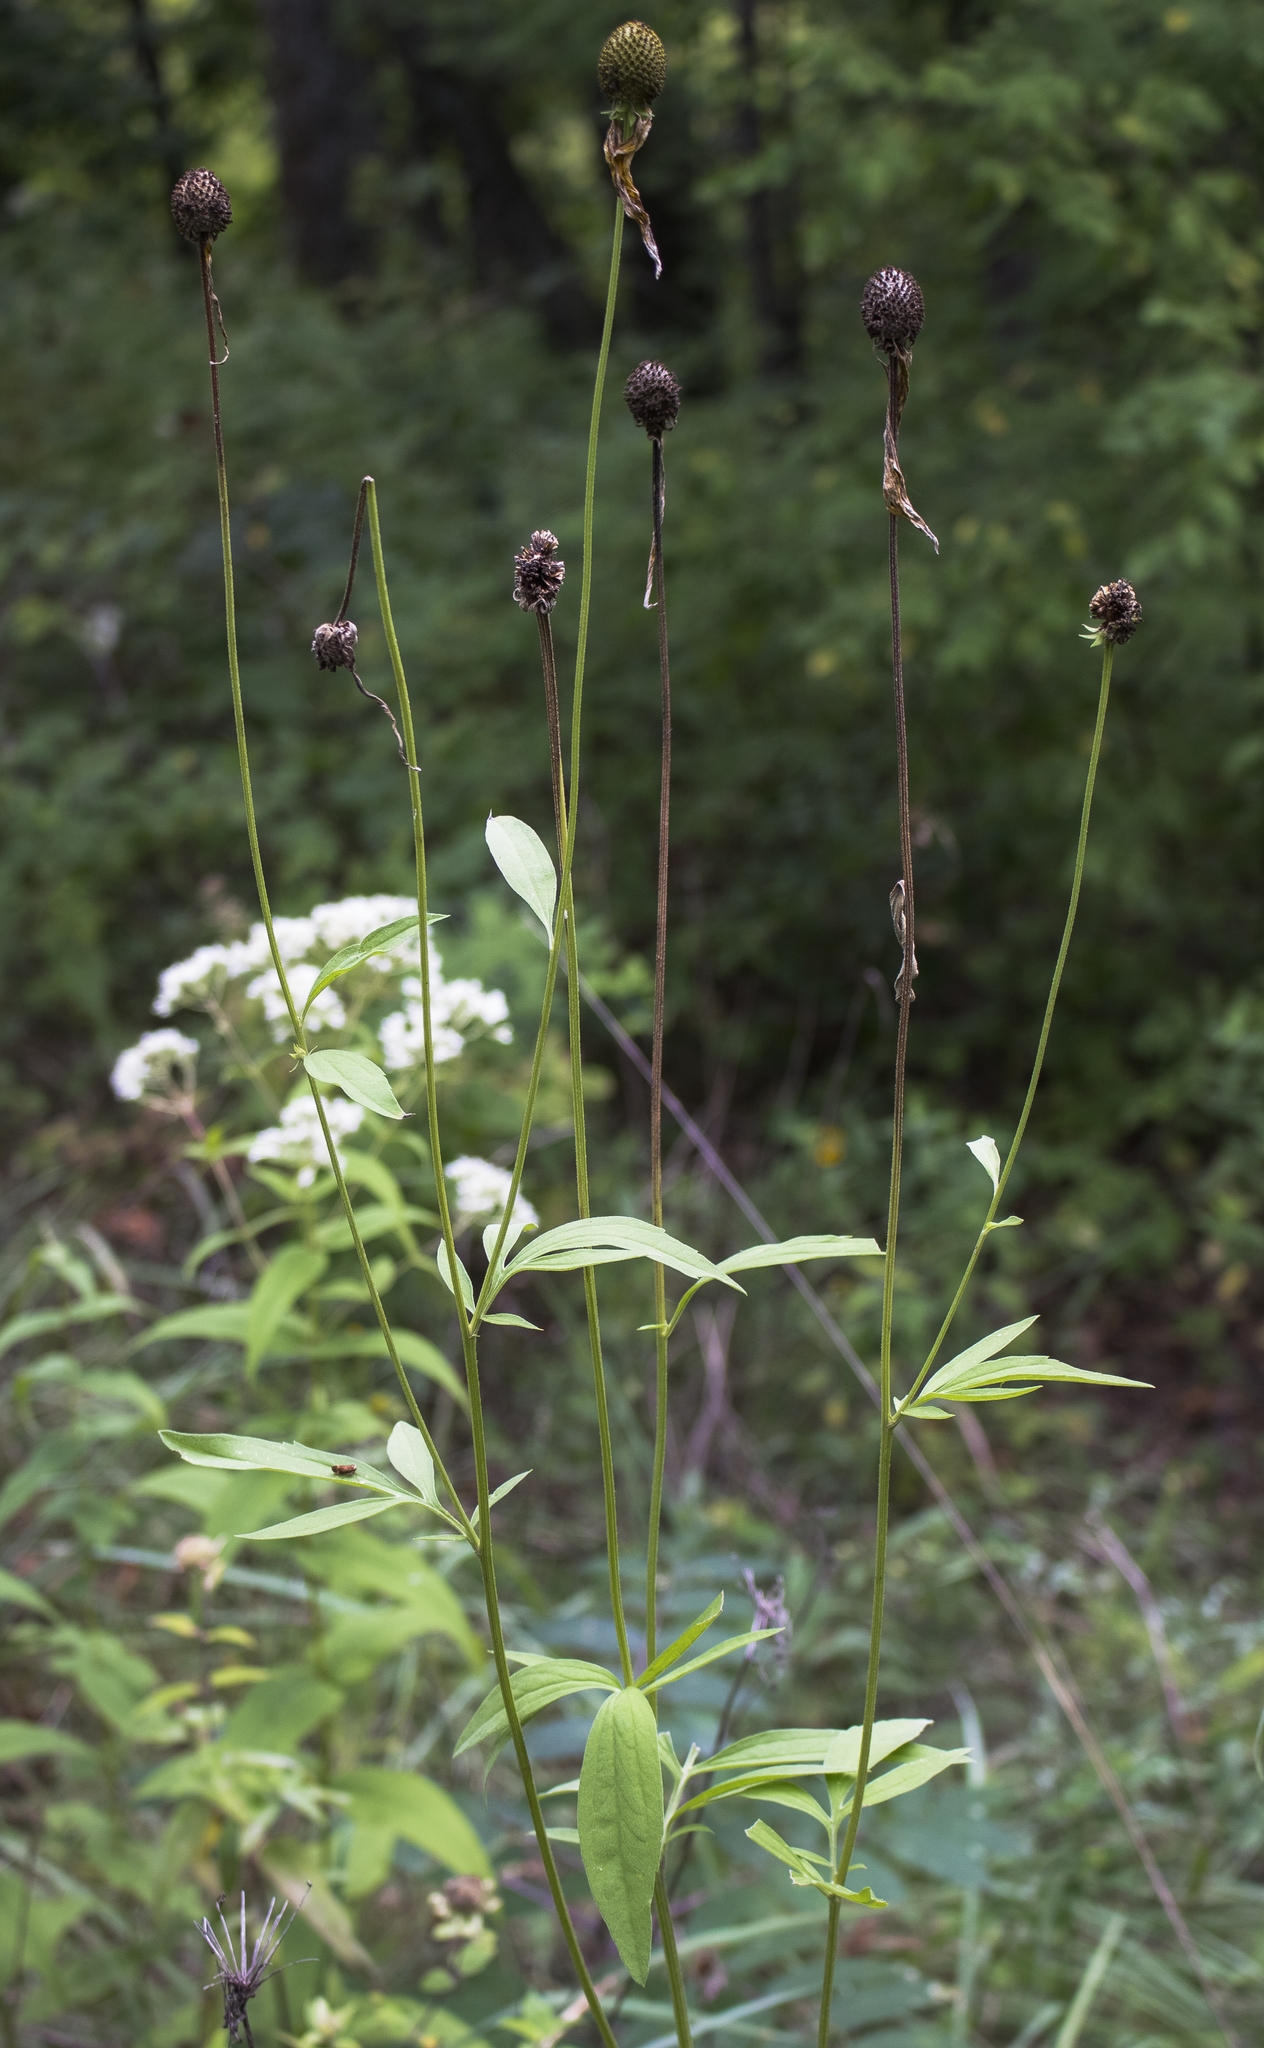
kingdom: Plantae
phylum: Tracheophyta
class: Magnoliopsida
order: Asterales
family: Asteraceae
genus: Ratibida
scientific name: Ratibida pinnata
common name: Drooping prairie-coneflower
